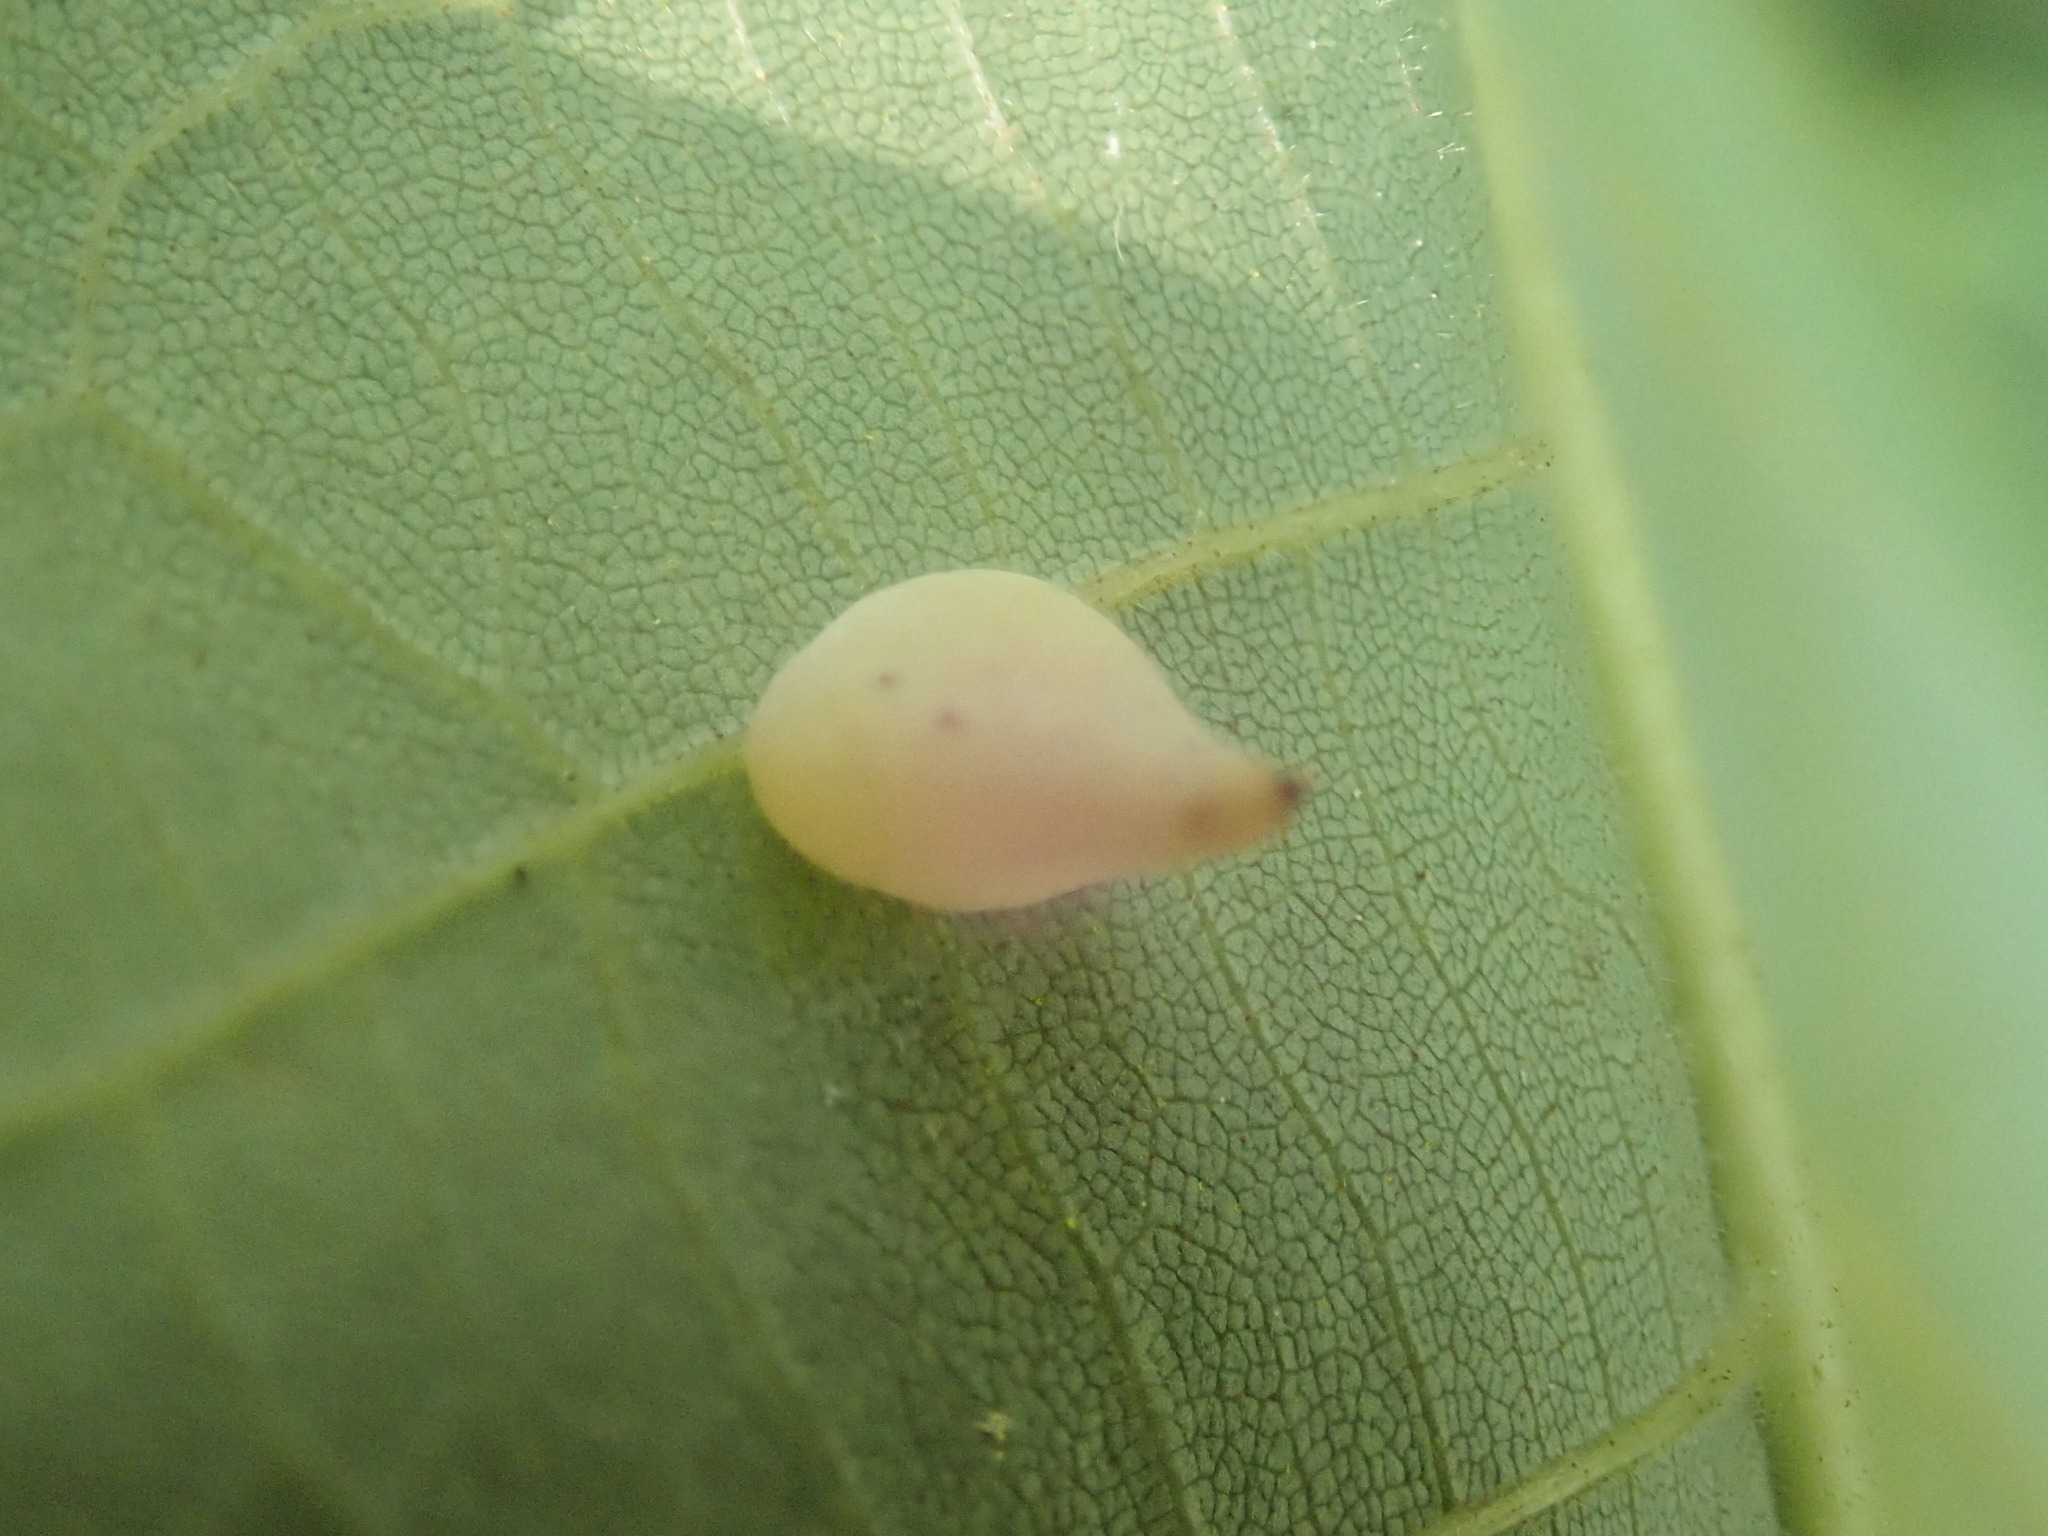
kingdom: Animalia
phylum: Arthropoda
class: Insecta
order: Diptera
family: Cecidomyiidae
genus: Caryomyia
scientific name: Caryomyia caryaecola
